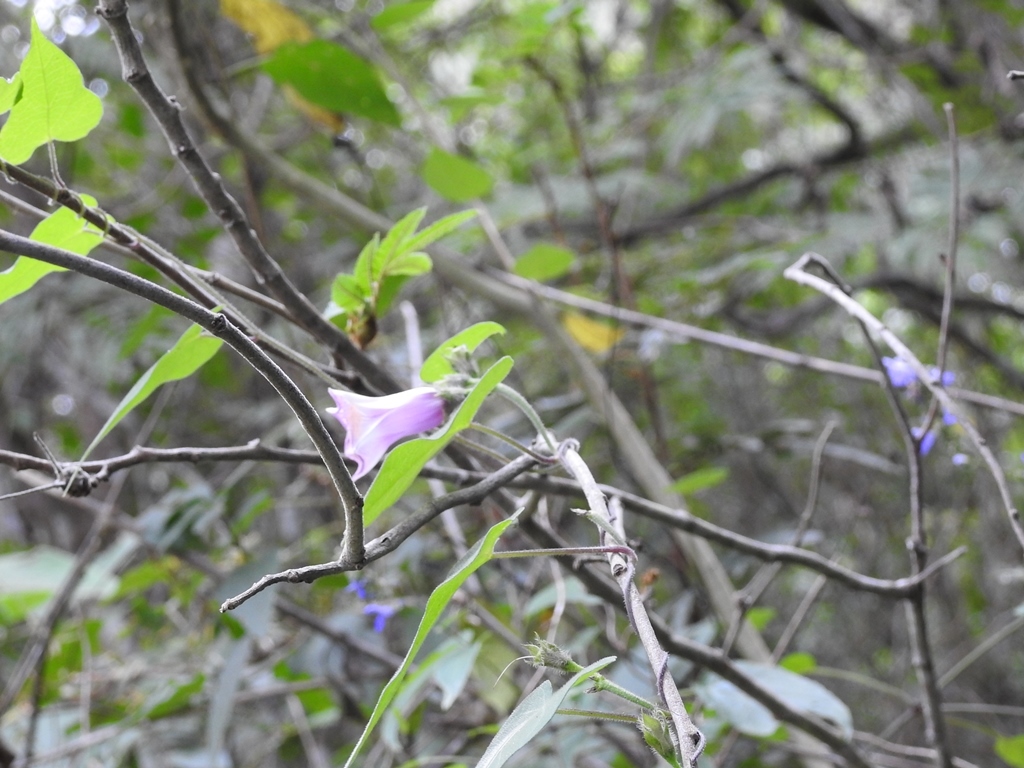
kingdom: Plantae
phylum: Tracheophyta
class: Magnoliopsida
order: Solanales
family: Convolvulaceae
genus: Ipomoea
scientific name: Ipomoea batatas
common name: Sweet-potato
